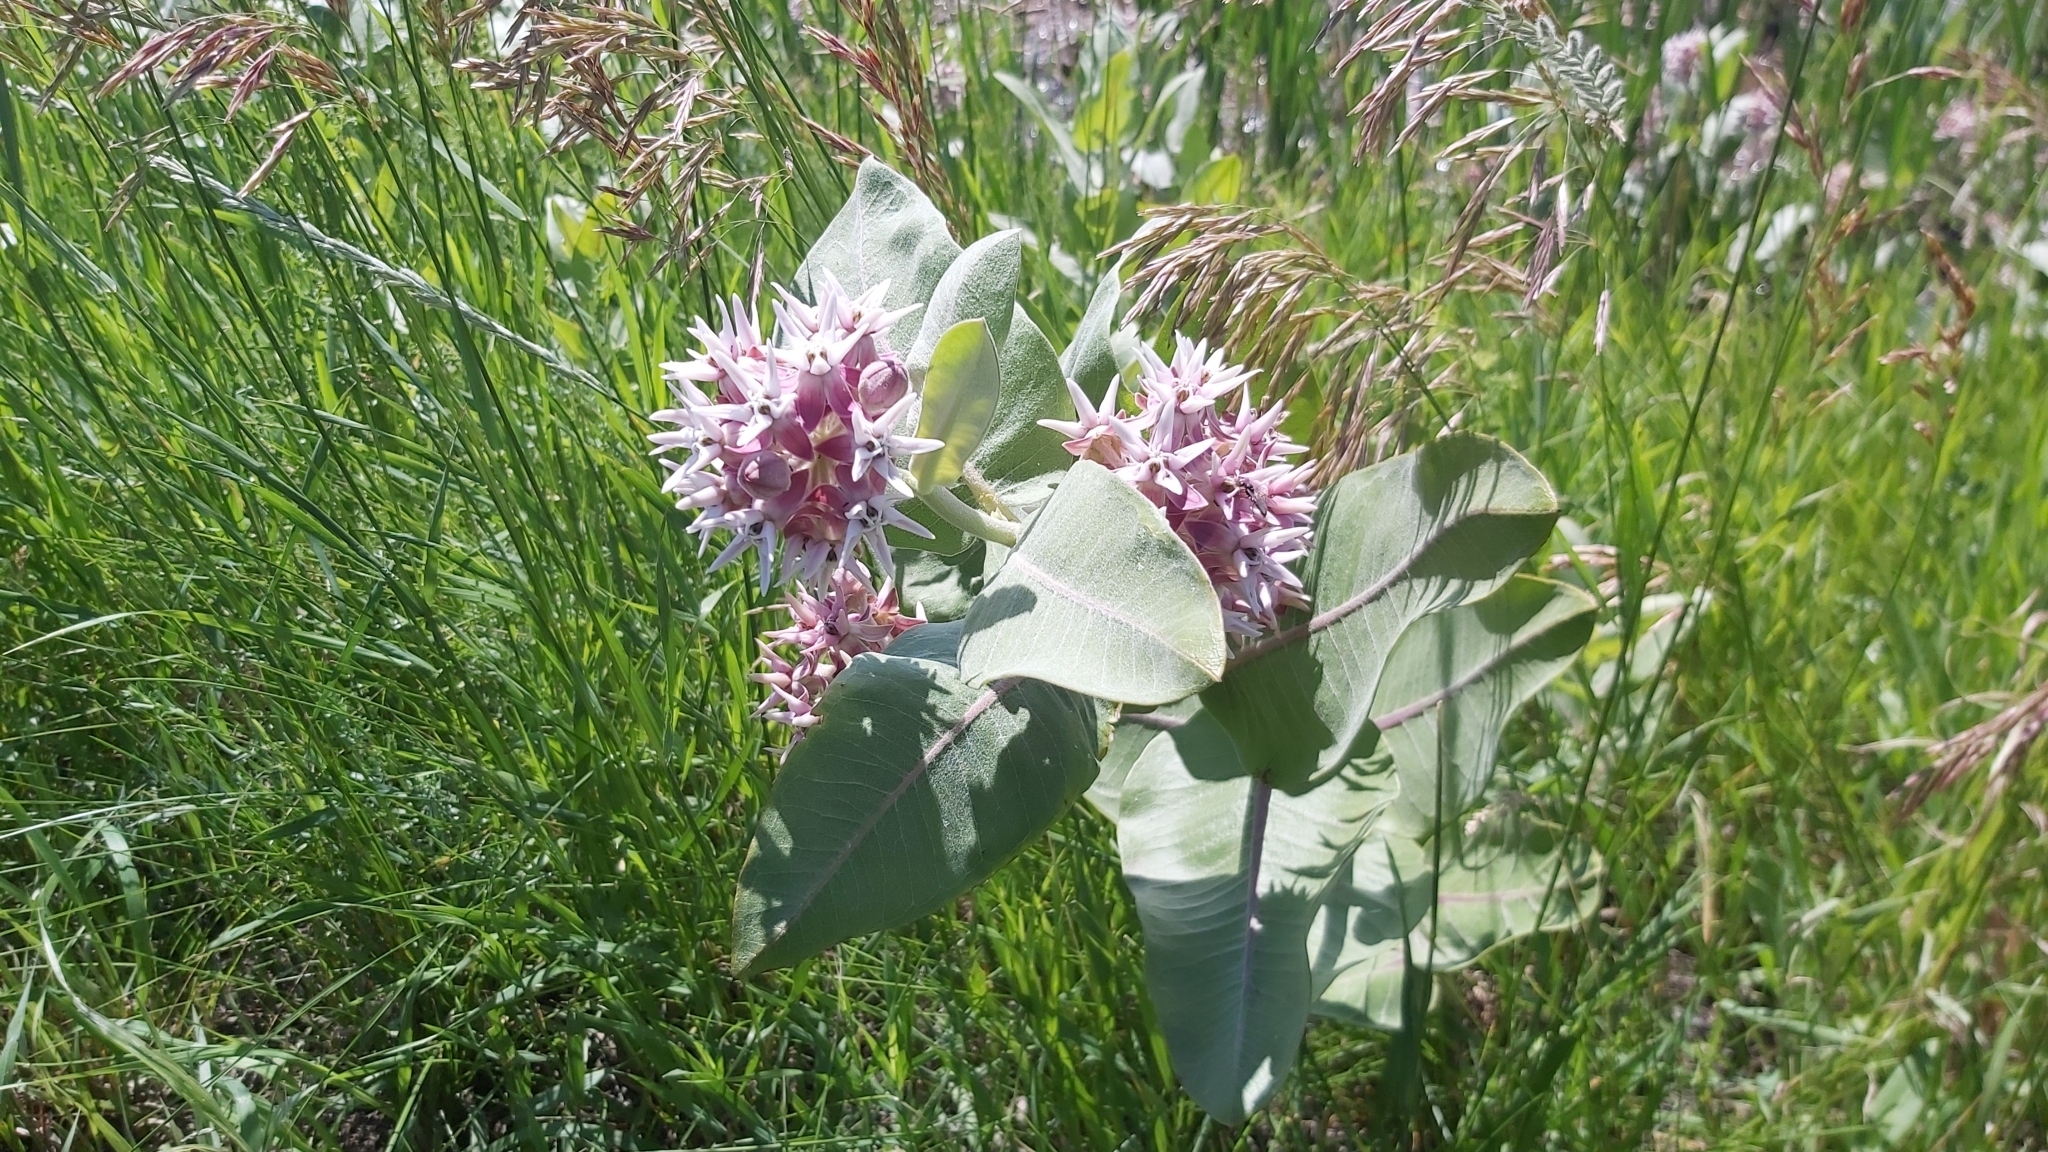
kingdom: Plantae
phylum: Tracheophyta
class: Magnoliopsida
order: Gentianales
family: Apocynaceae
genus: Asclepias
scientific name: Asclepias speciosa
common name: Showy milkweed
